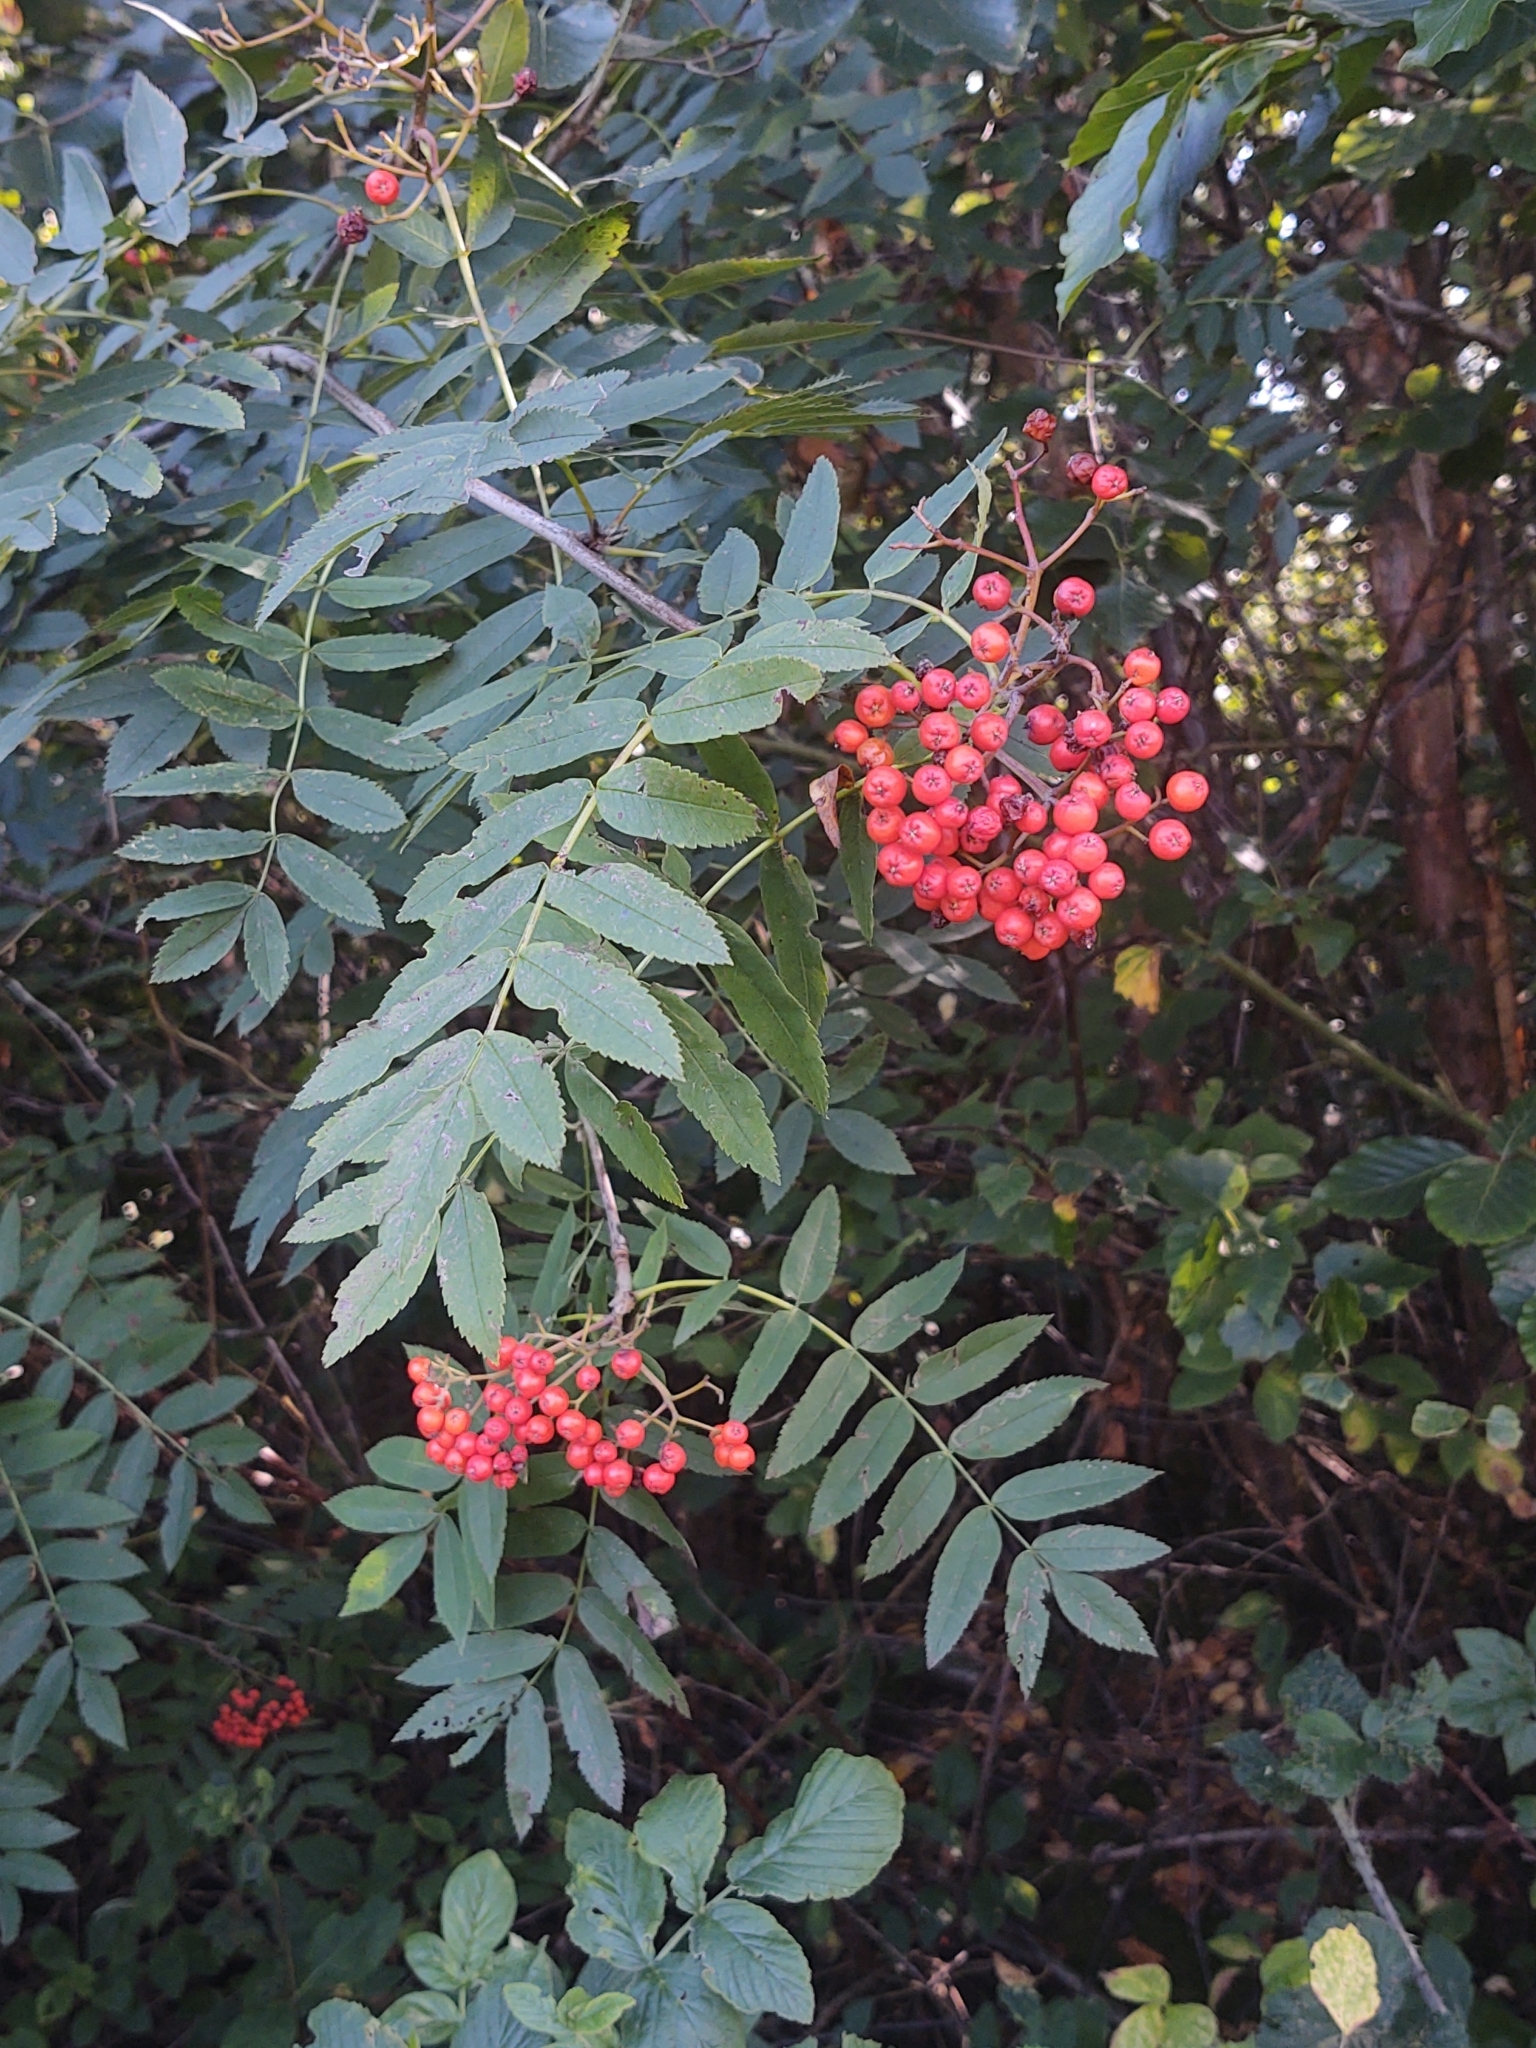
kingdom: Plantae
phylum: Tracheophyta
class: Magnoliopsida
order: Rosales
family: Rosaceae
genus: Sorbus
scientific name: Sorbus aucuparia
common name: Rowan
